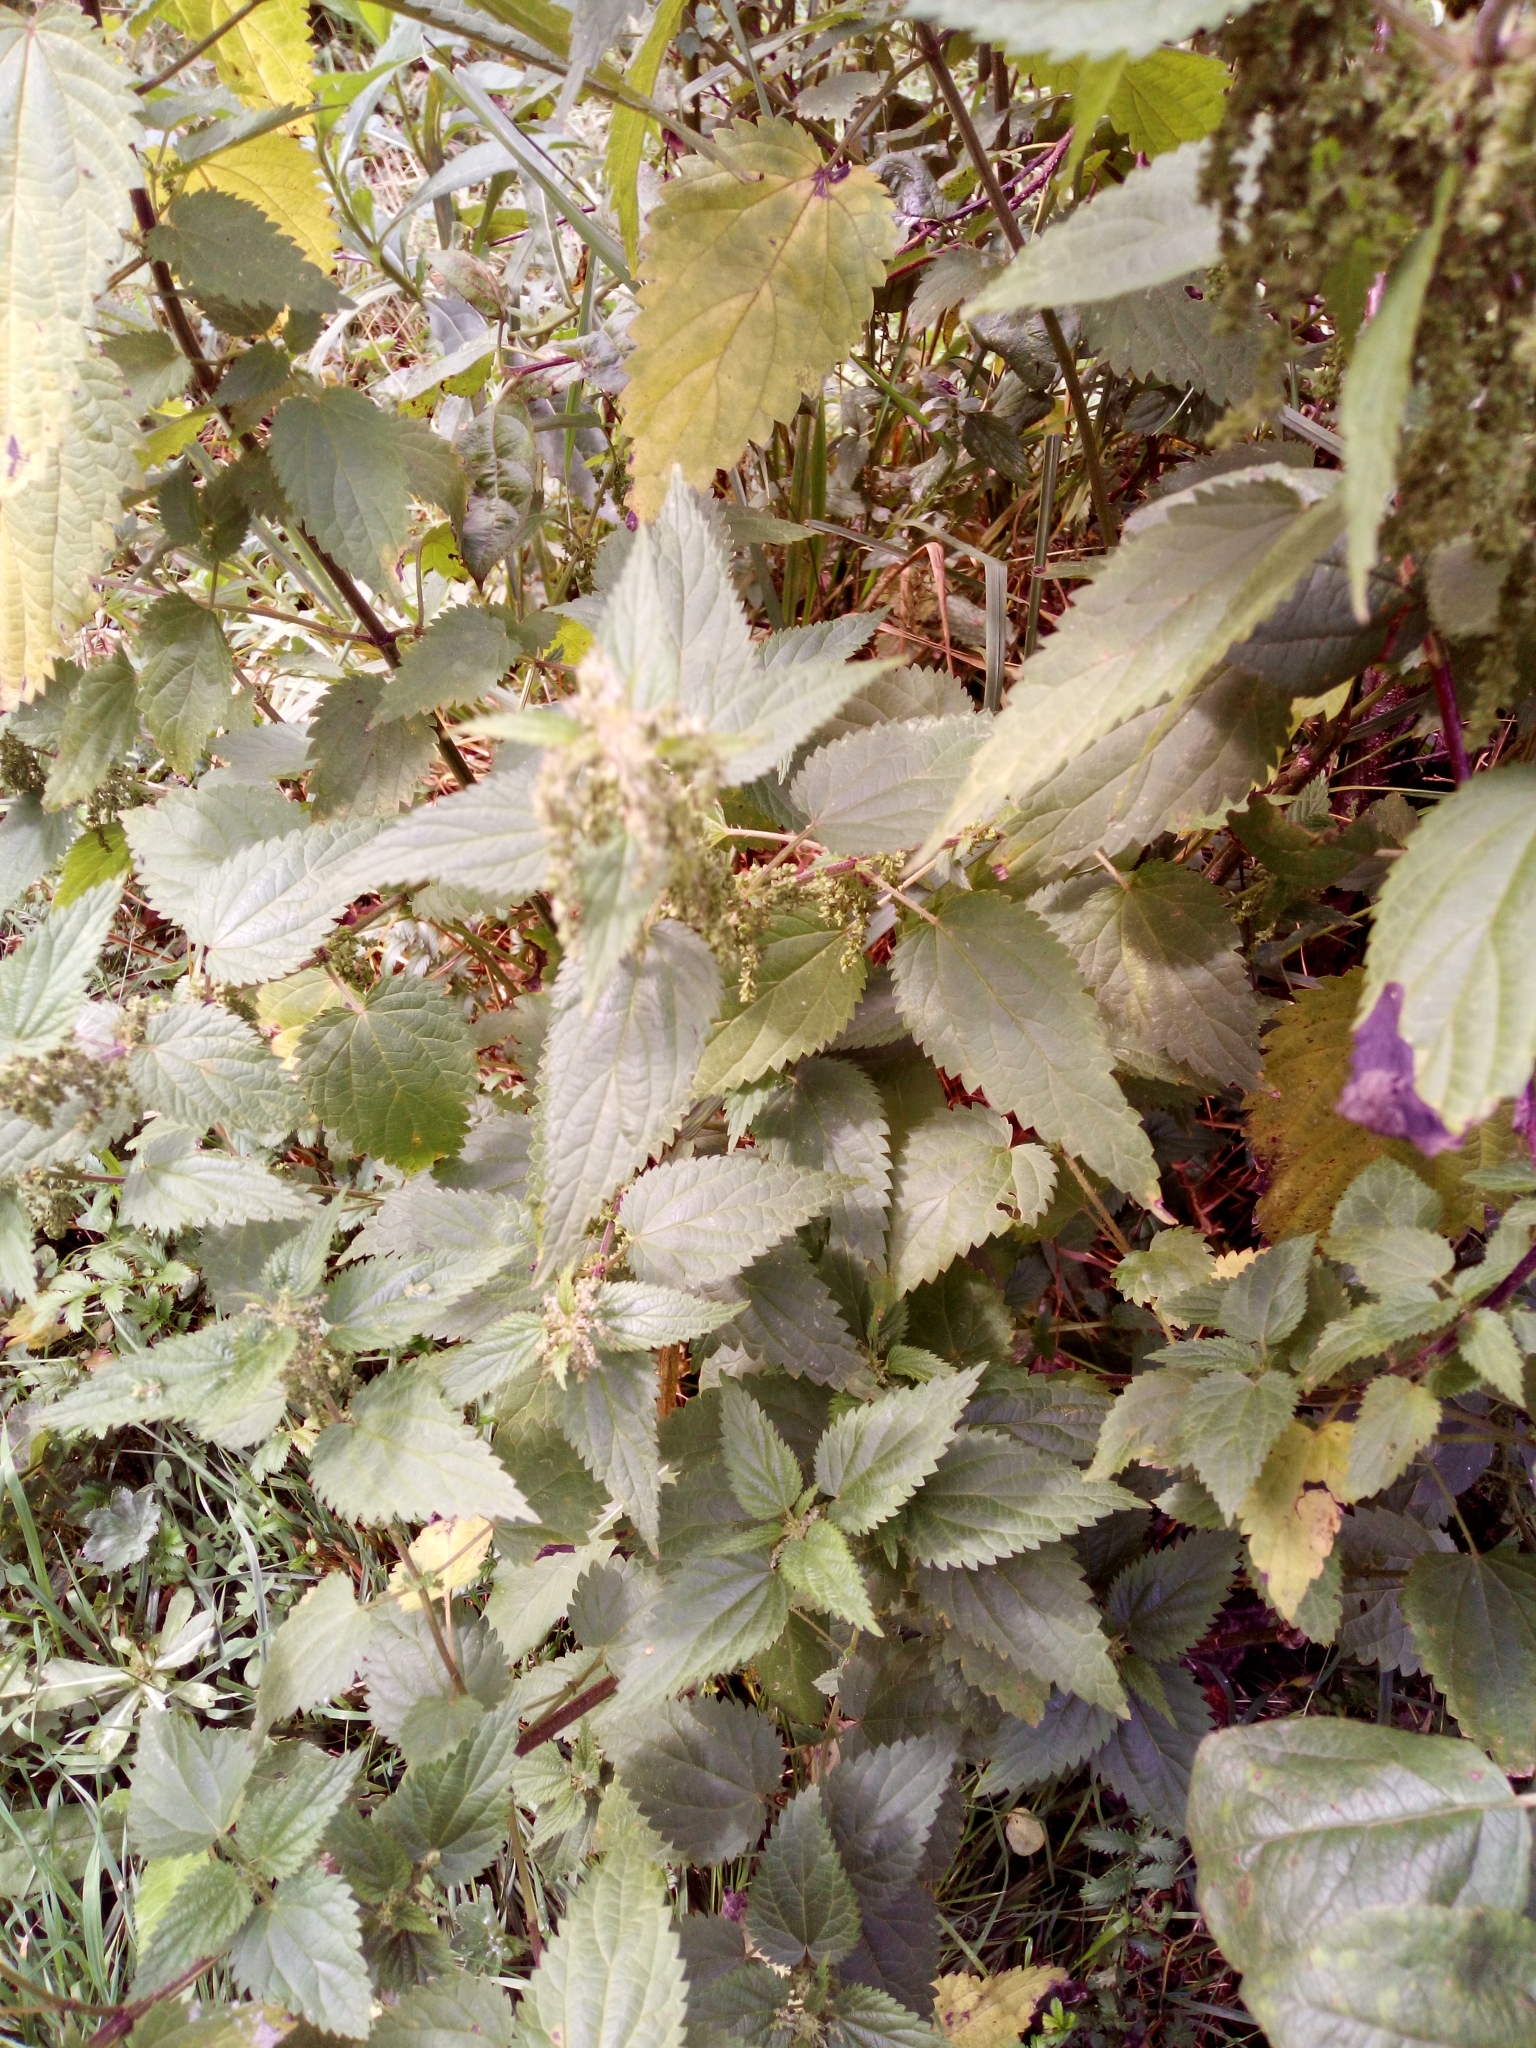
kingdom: Plantae
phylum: Tracheophyta
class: Magnoliopsida
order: Rosales
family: Urticaceae
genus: Urtica
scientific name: Urtica dioica
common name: Common nettle
